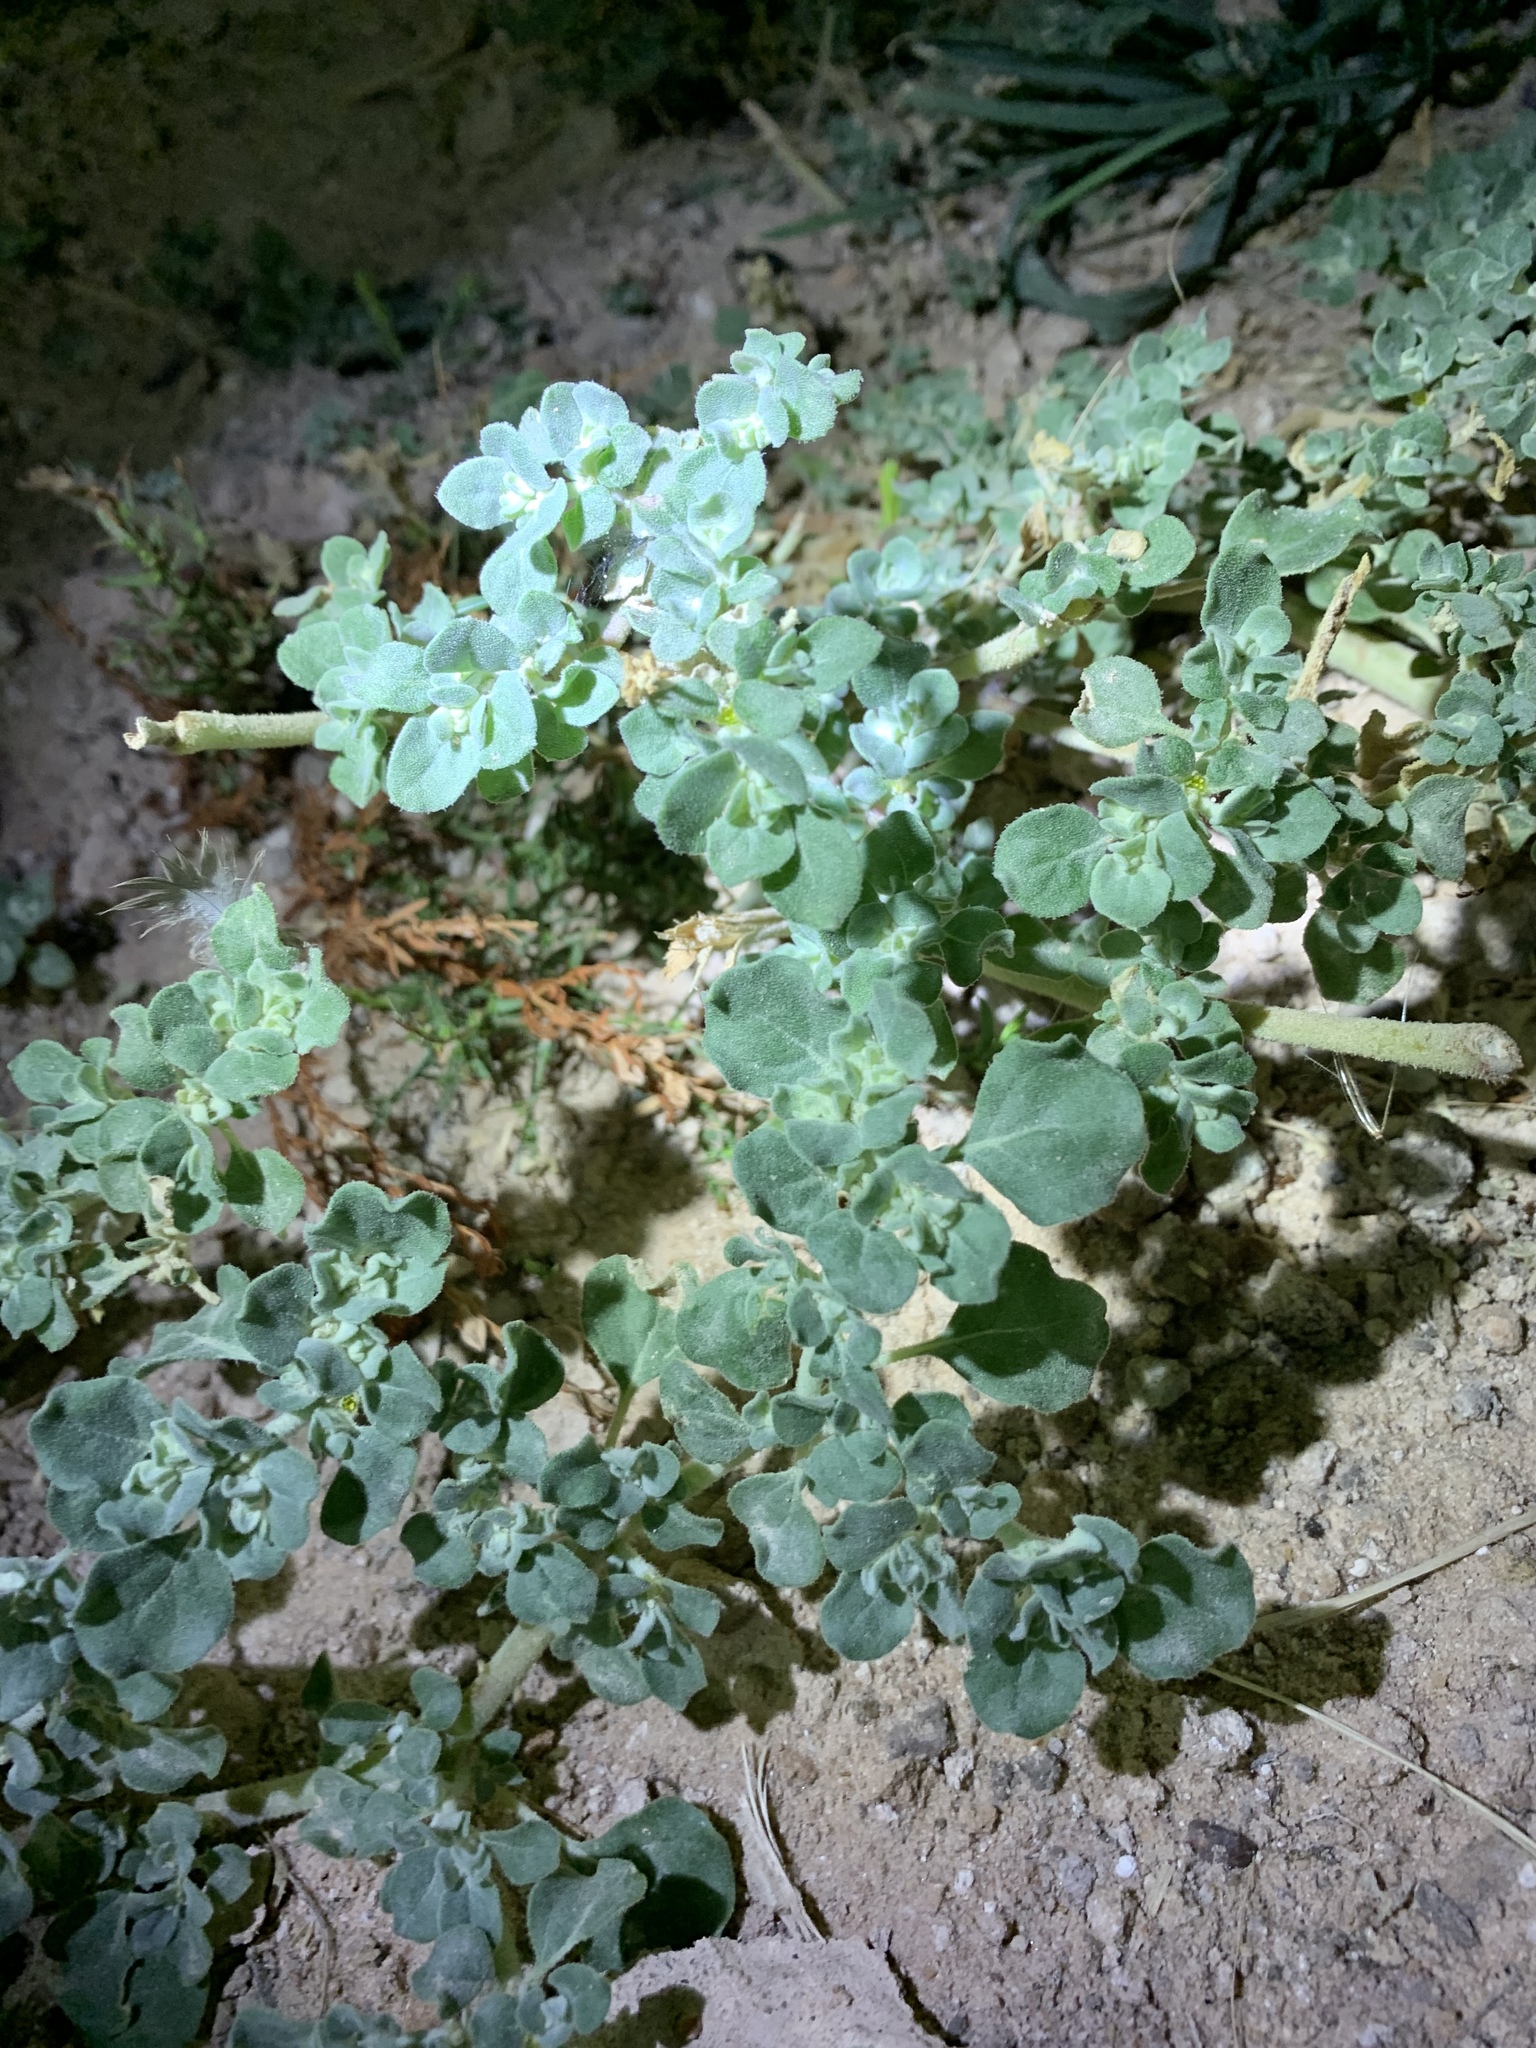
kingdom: Plantae
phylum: Tracheophyta
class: Magnoliopsida
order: Caryophyllales
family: Amaranthaceae
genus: Tidestromia
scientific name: Tidestromia lanuginosa
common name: Woolly tidestromia
